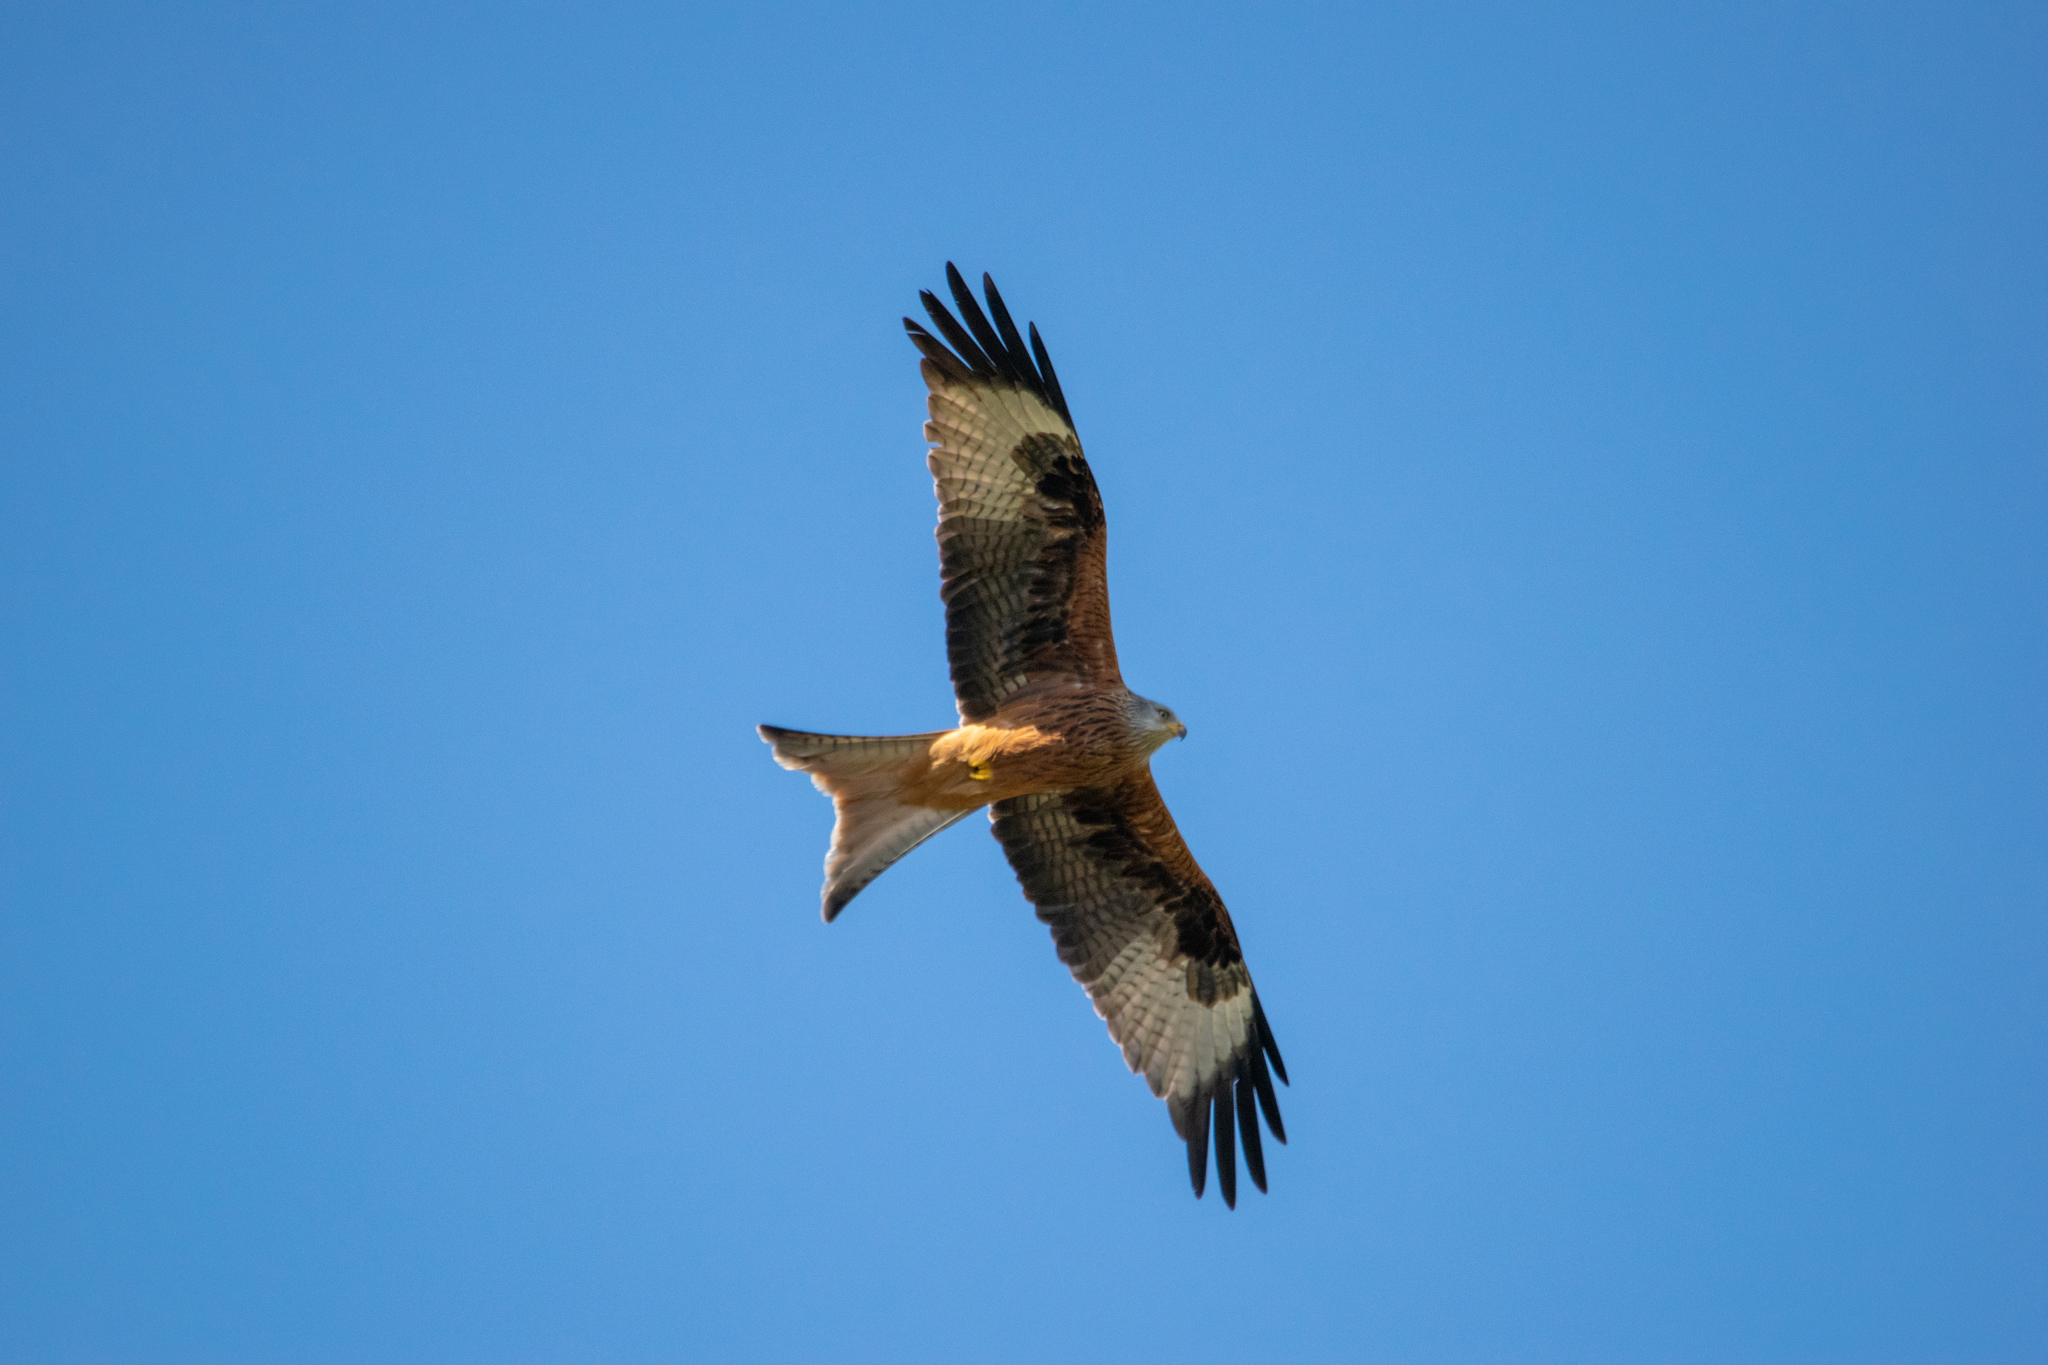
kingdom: Animalia
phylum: Chordata
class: Aves
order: Accipitriformes
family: Accipitridae
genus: Milvus
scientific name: Milvus milvus
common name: Red kite
